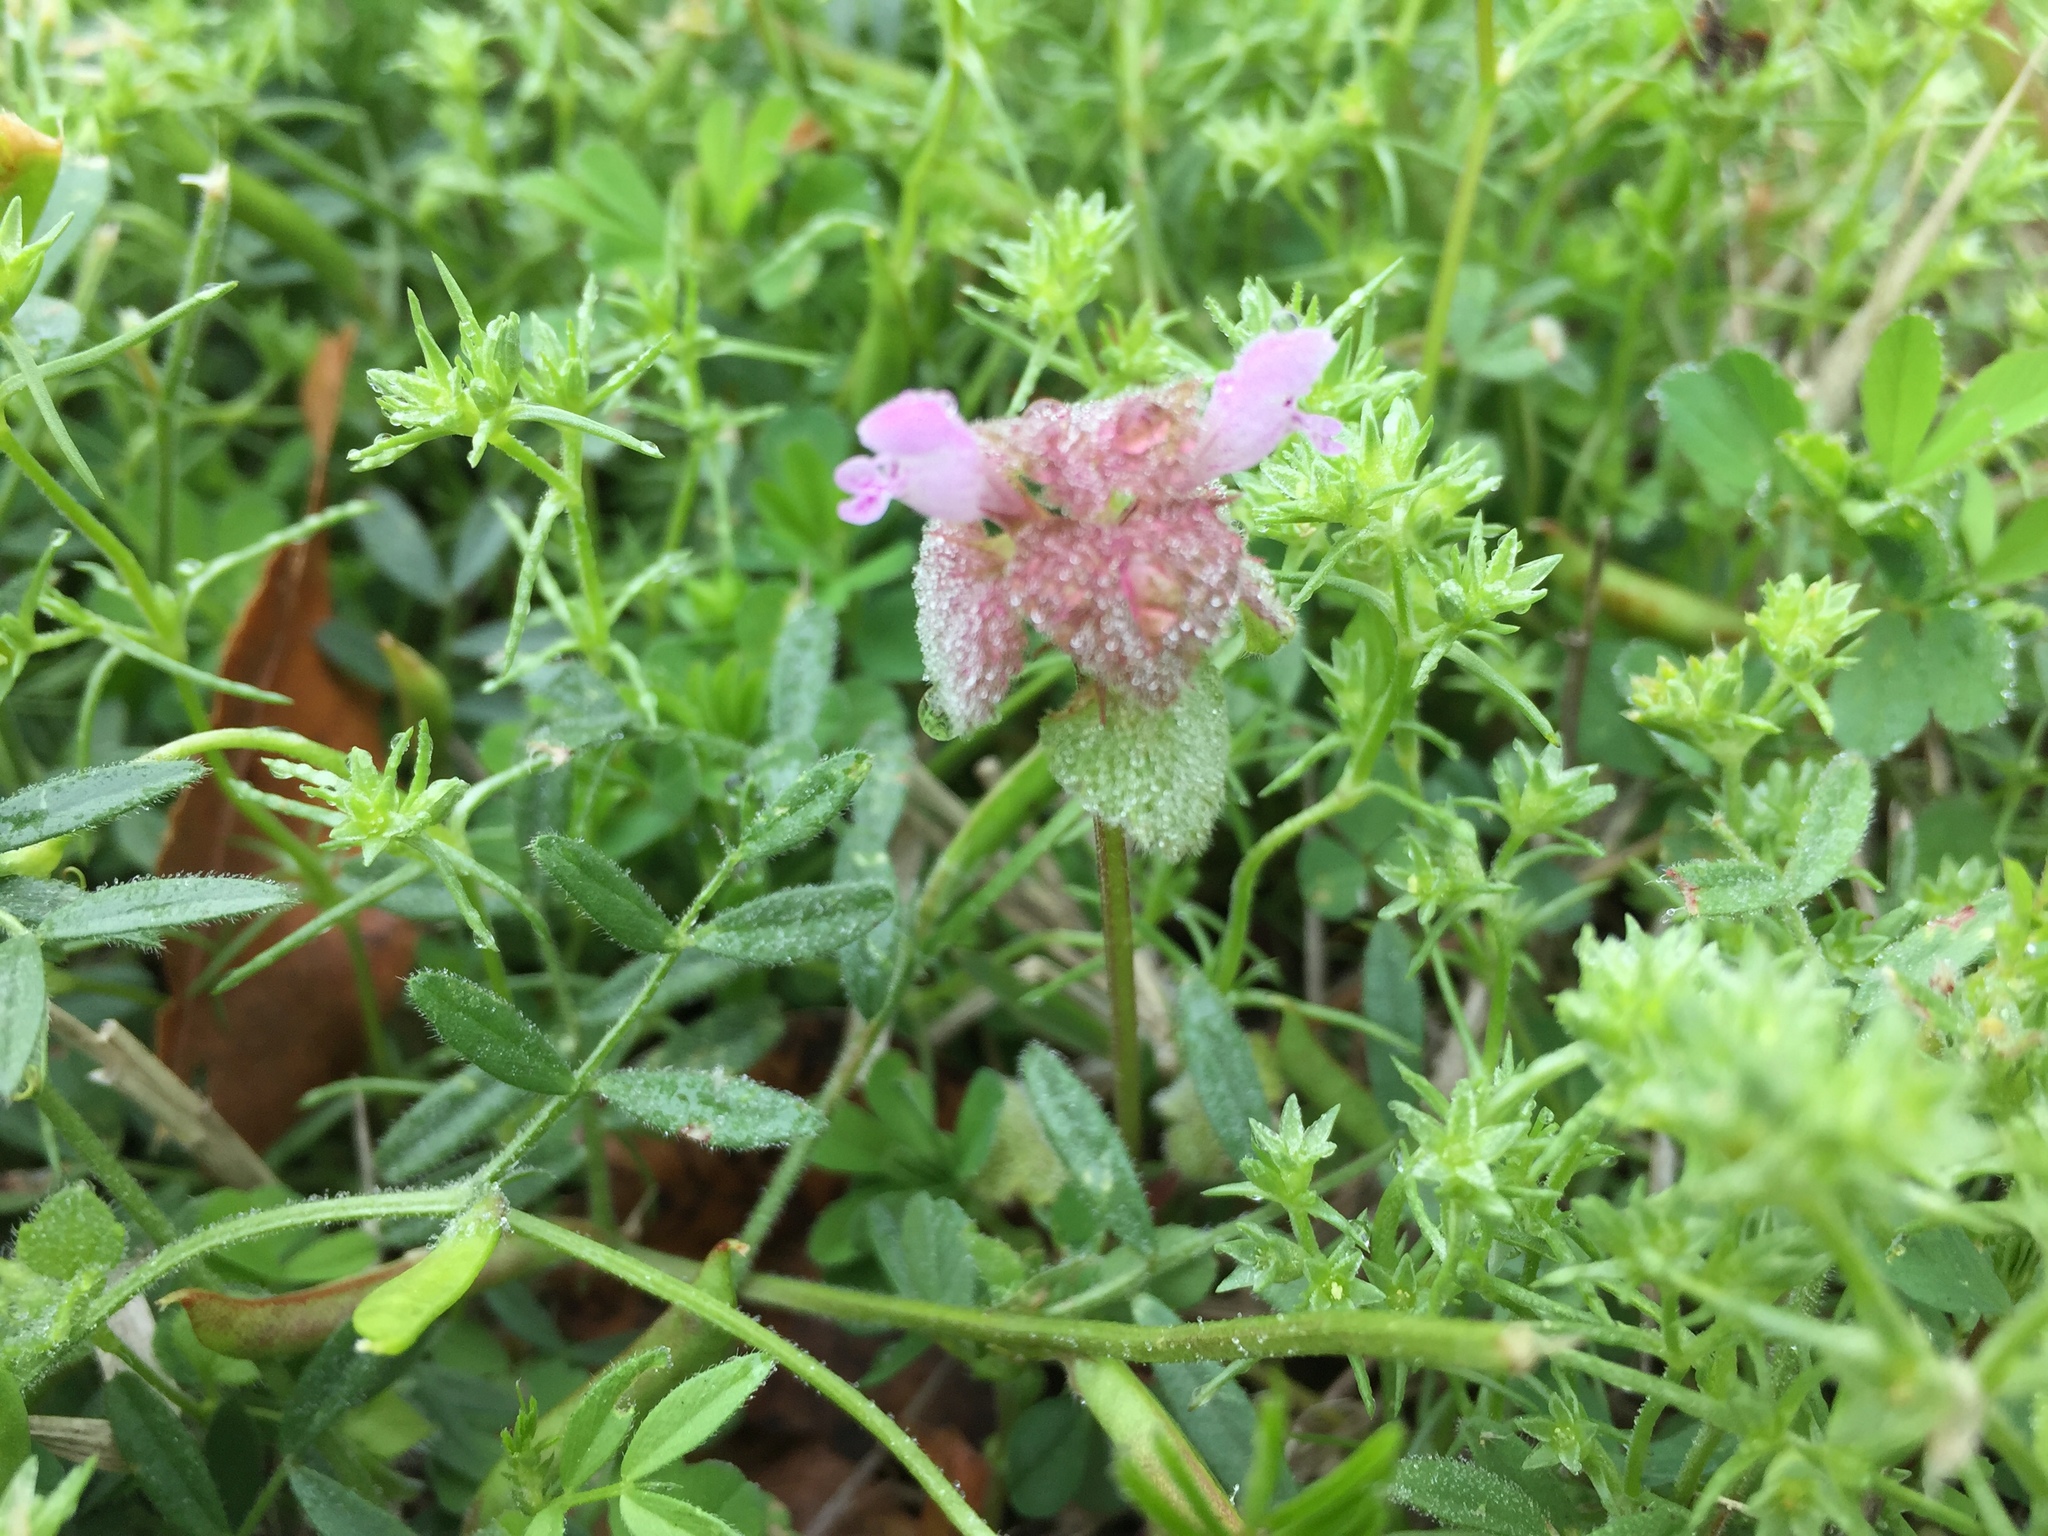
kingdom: Plantae
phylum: Tracheophyta
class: Magnoliopsida
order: Lamiales
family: Lamiaceae
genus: Lamium
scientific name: Lamium purpureum
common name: Red dead-nettle
